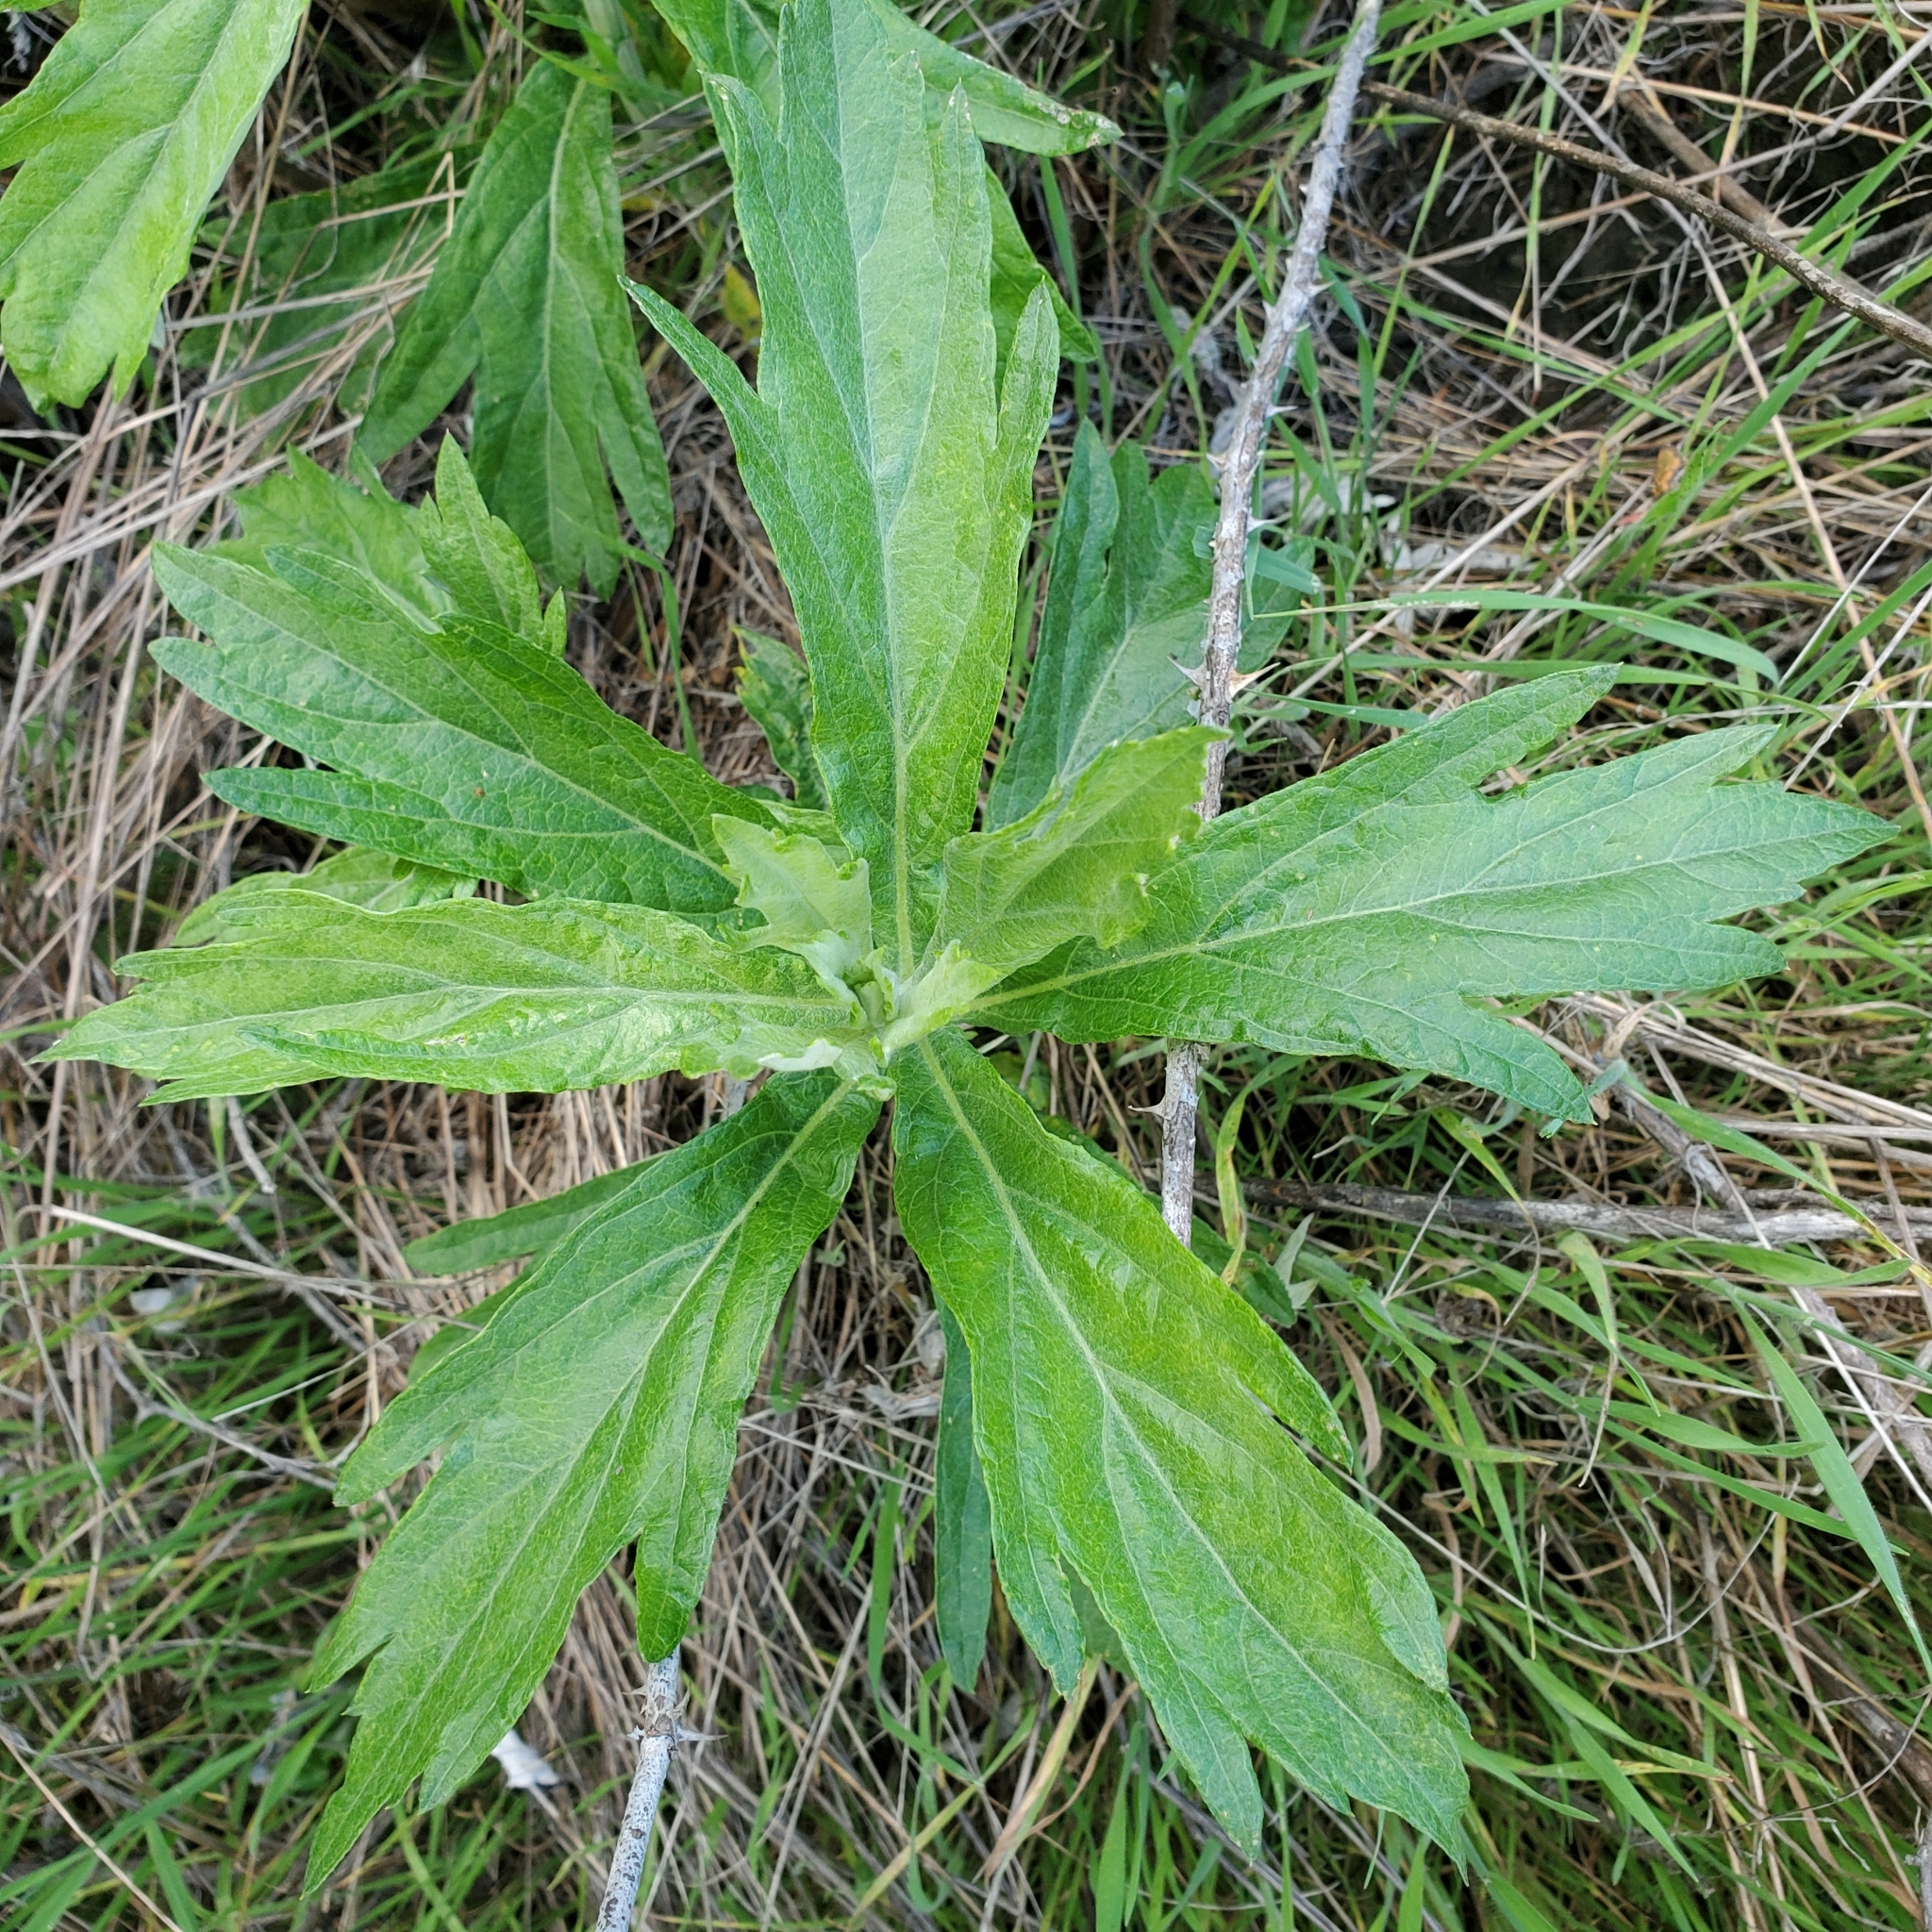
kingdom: Plantae
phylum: Tracheophyta
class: Magnoliopsida
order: Asterales
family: Asteraceae
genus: Artemisia
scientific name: Artemisia douglasiana
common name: Northwest mugwort
